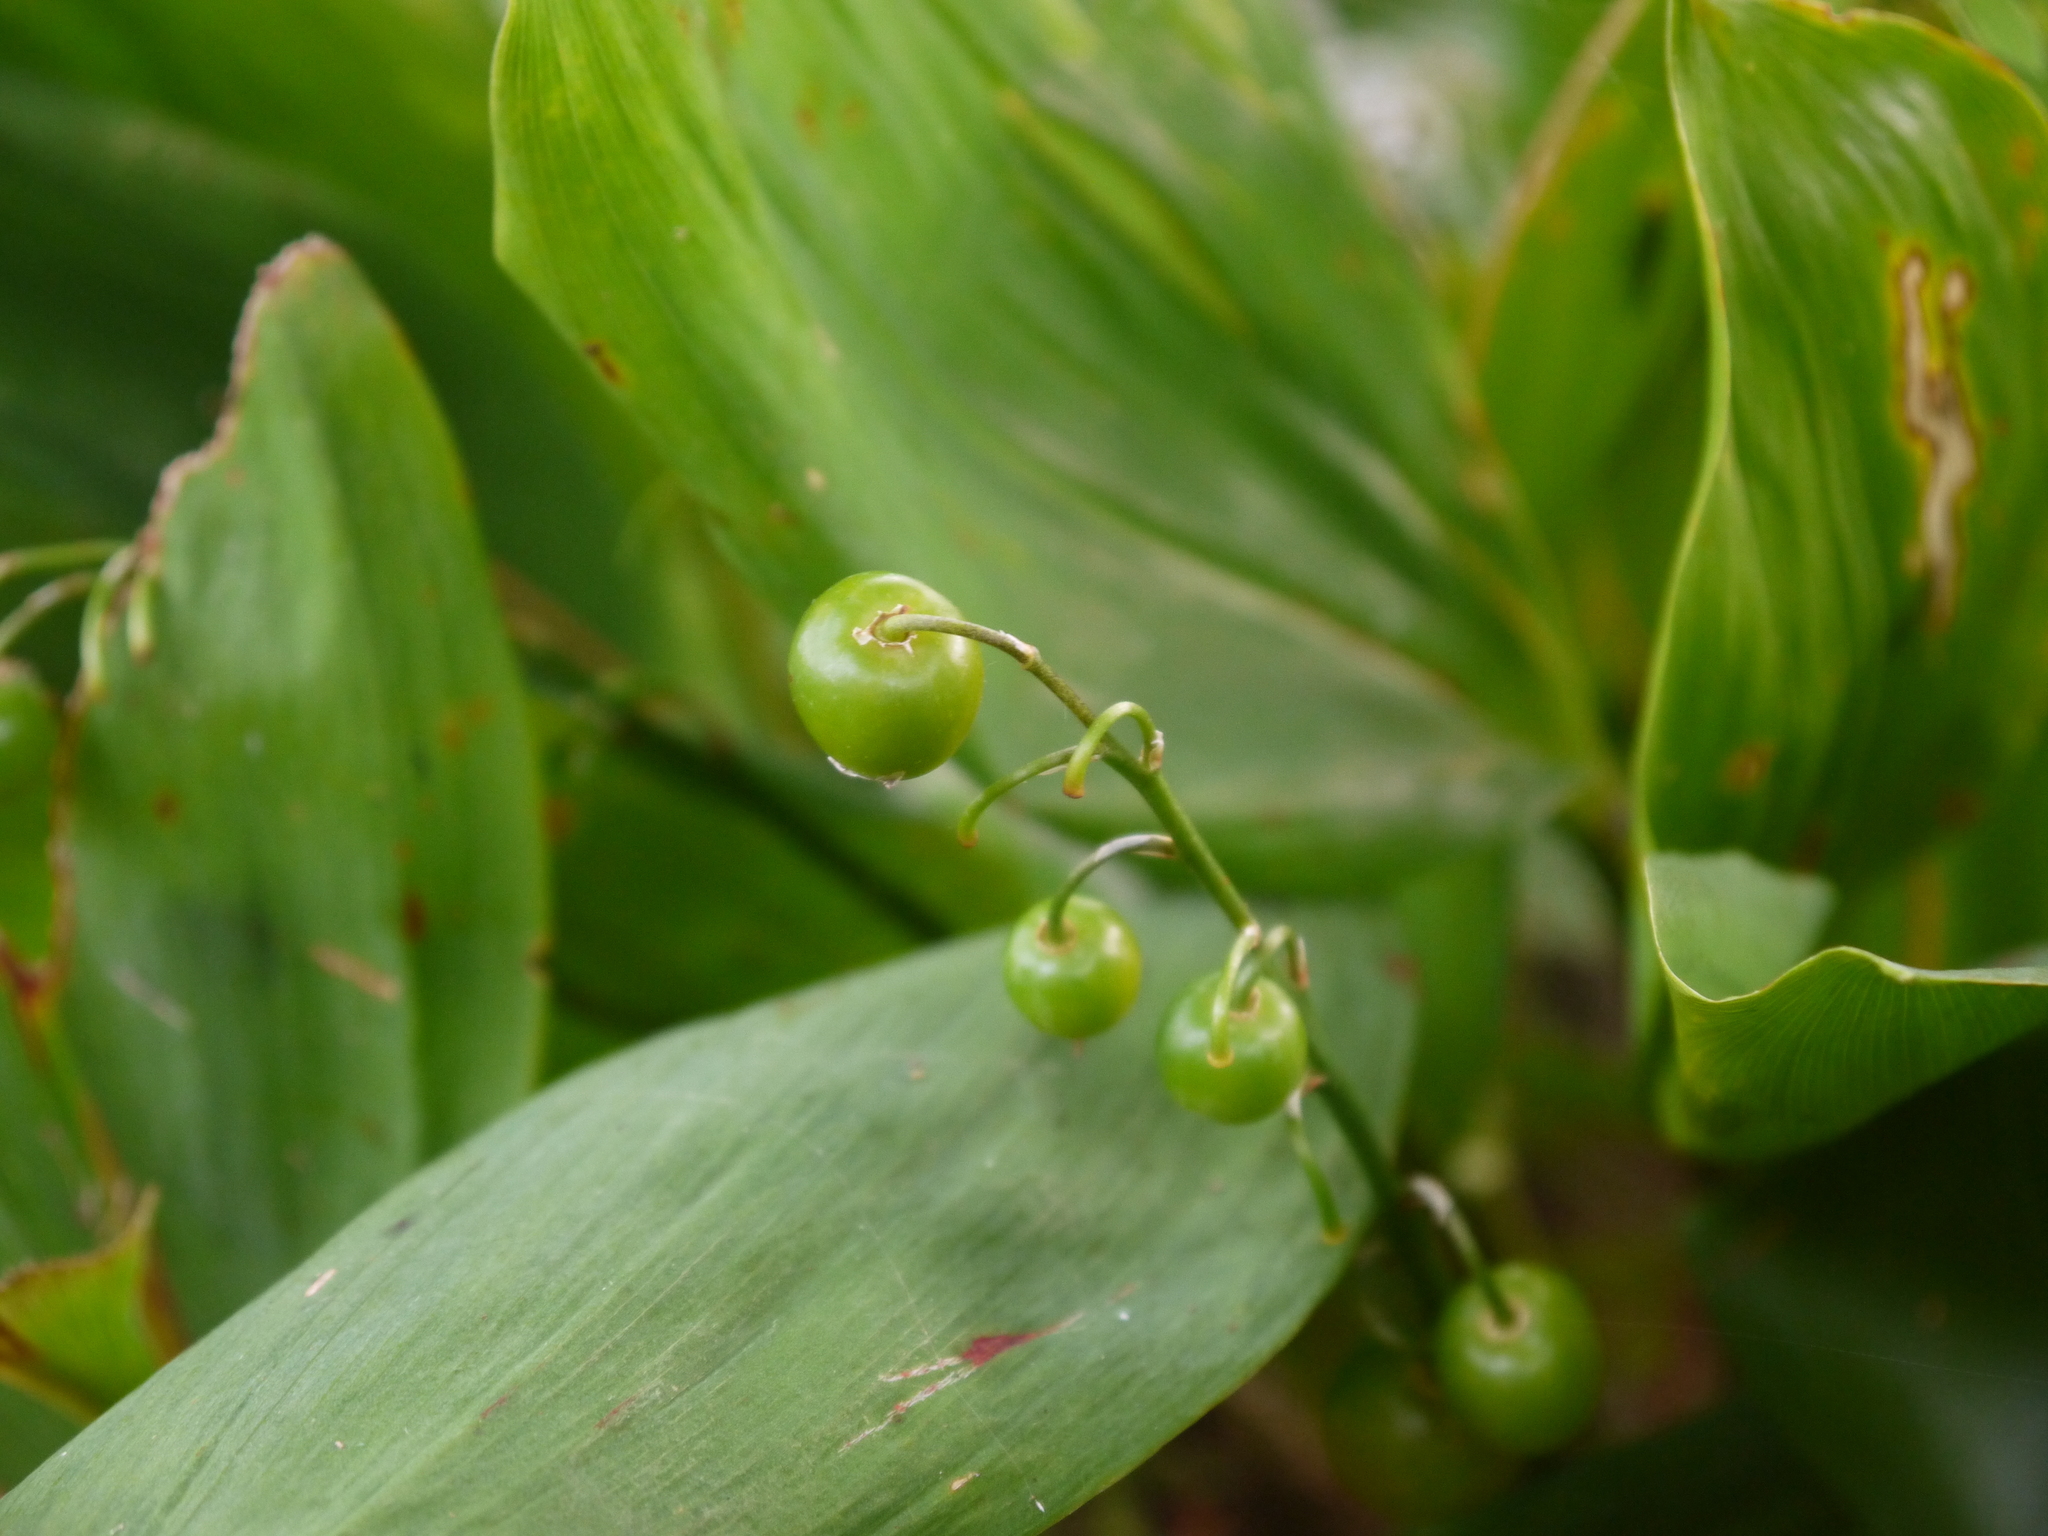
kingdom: Plantae
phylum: Tracheophyta
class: Liliopsida
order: Asparagales
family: Asparagaceae
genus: Convallaria
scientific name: Convallaria majalis
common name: Lily-of-the-valley
